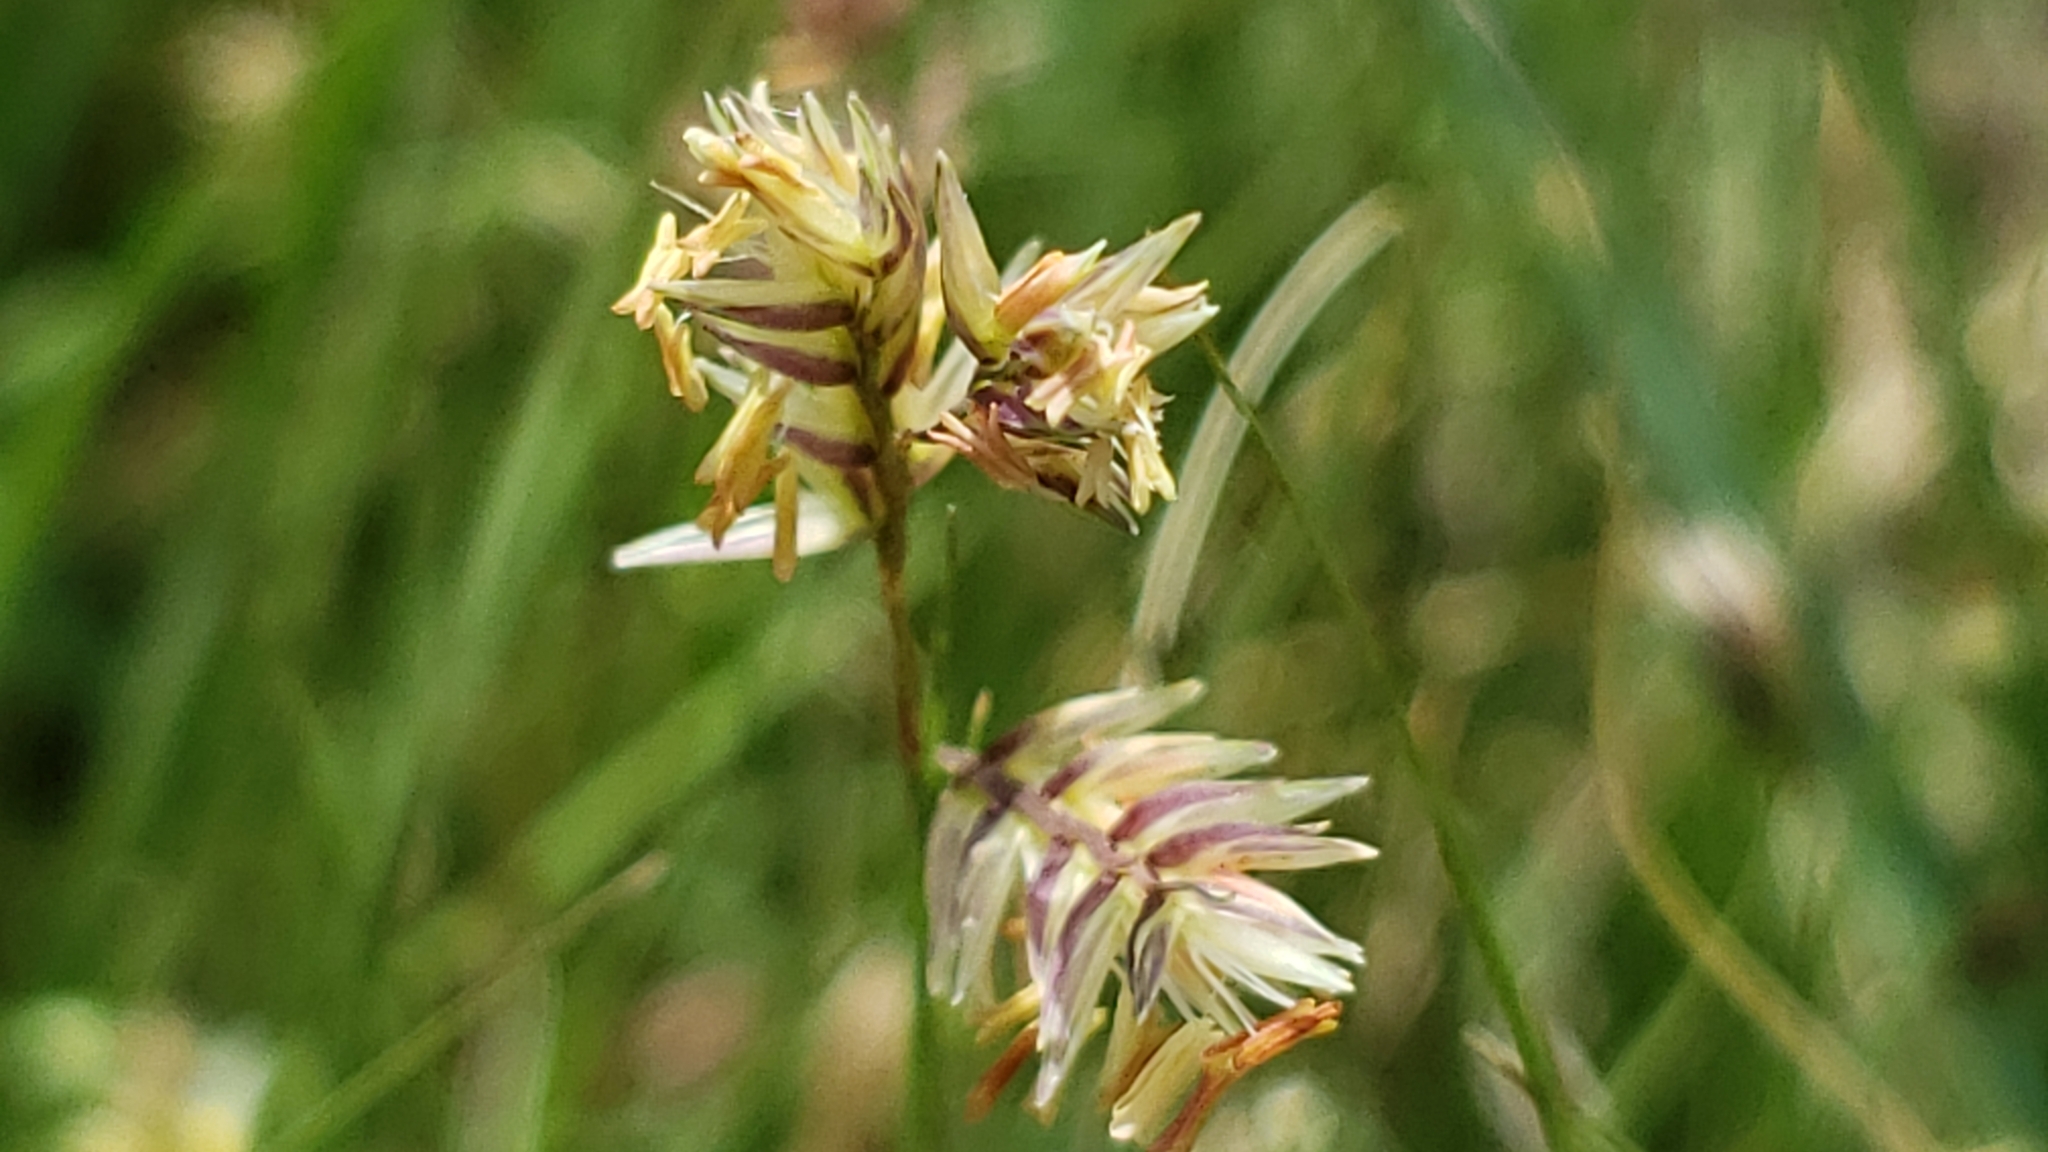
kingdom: Plantae
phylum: Tracheophyta
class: Liliopsida
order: Poales
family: Poaceae
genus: Bouteloua
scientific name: Bouteloua dactyloides
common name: Buffalo grass
